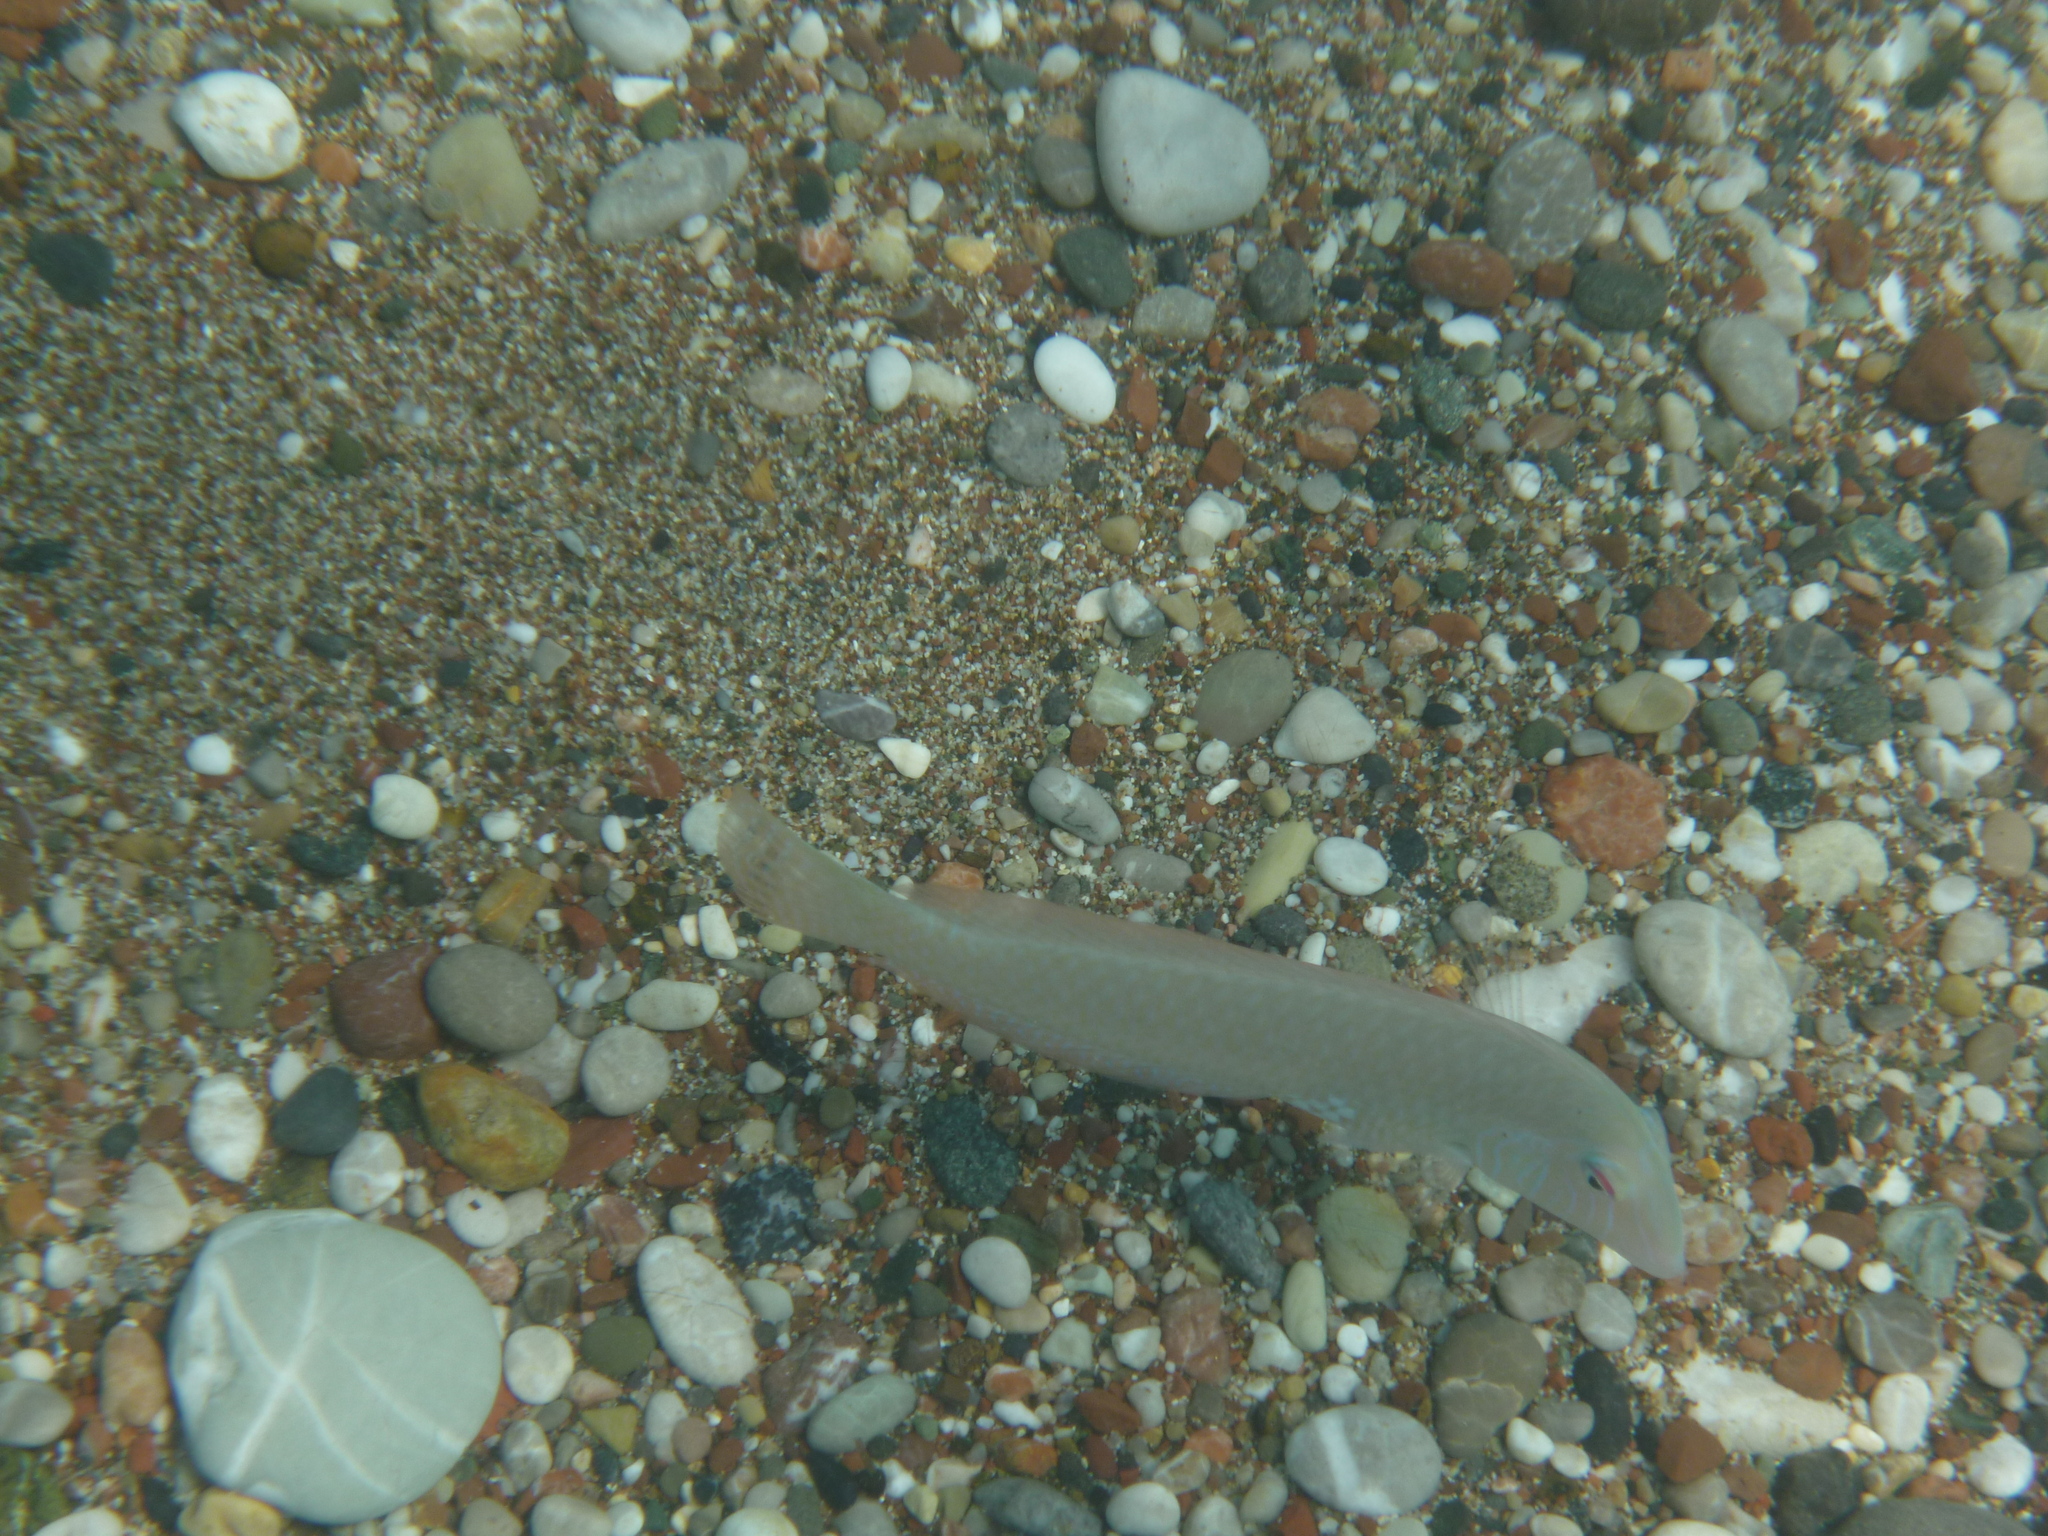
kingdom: Animalia
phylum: Chordata
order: Perciformes
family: Labridae
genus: Xyrichtys
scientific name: Xyrichtys novacula
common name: Pearly razorfish
